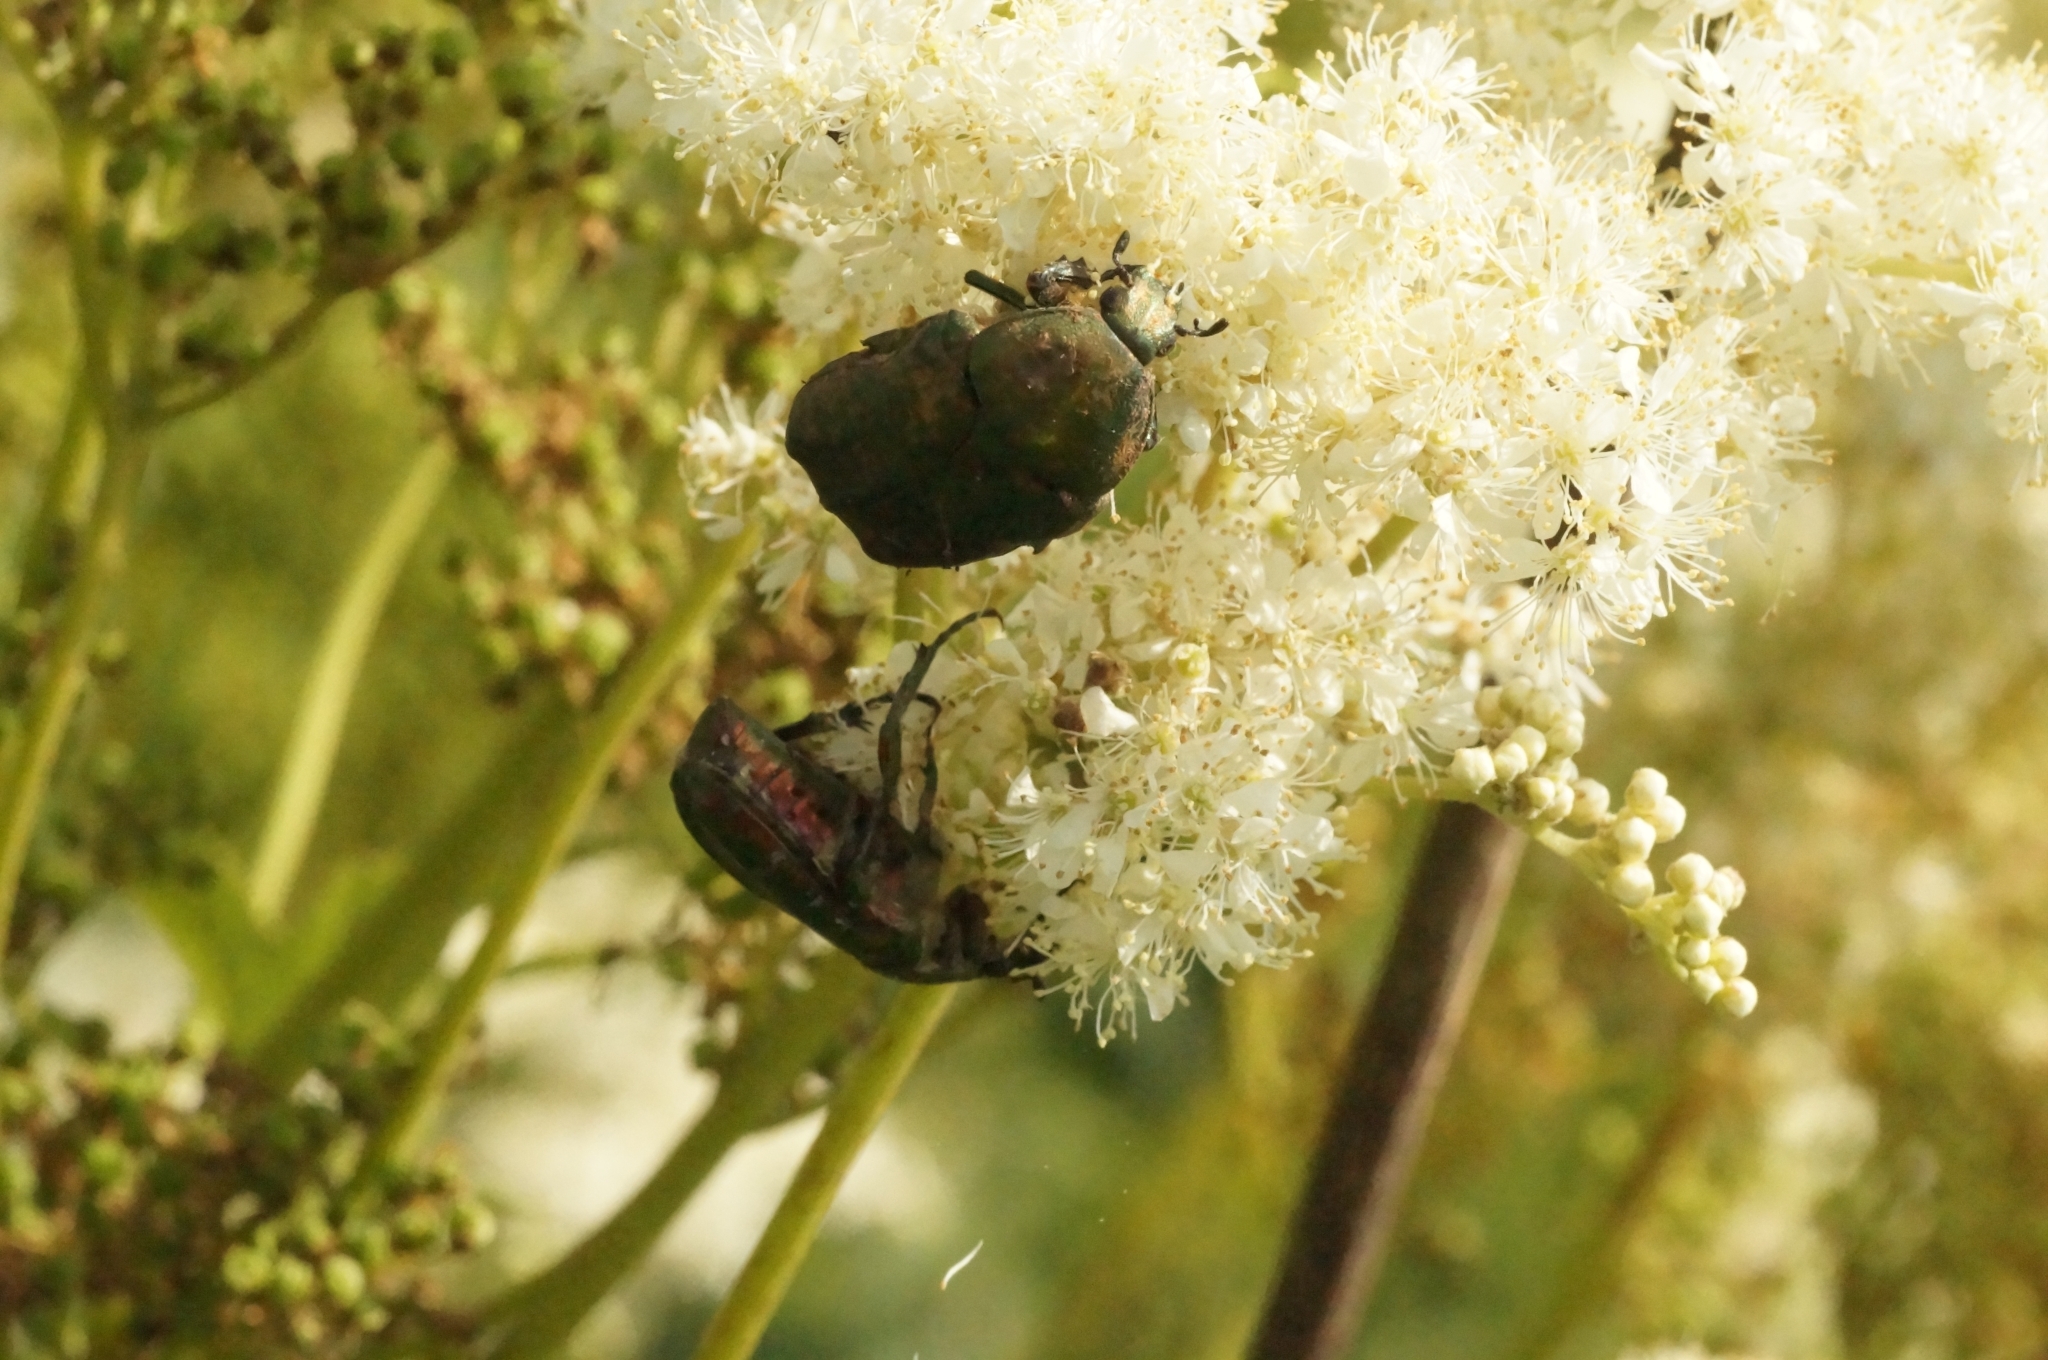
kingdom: Animalia
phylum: Arthropoda
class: Insecta
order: Coleoptera
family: Scarabaeidae
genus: Cetonia
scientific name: Cetonia aurata
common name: Rose chafer
